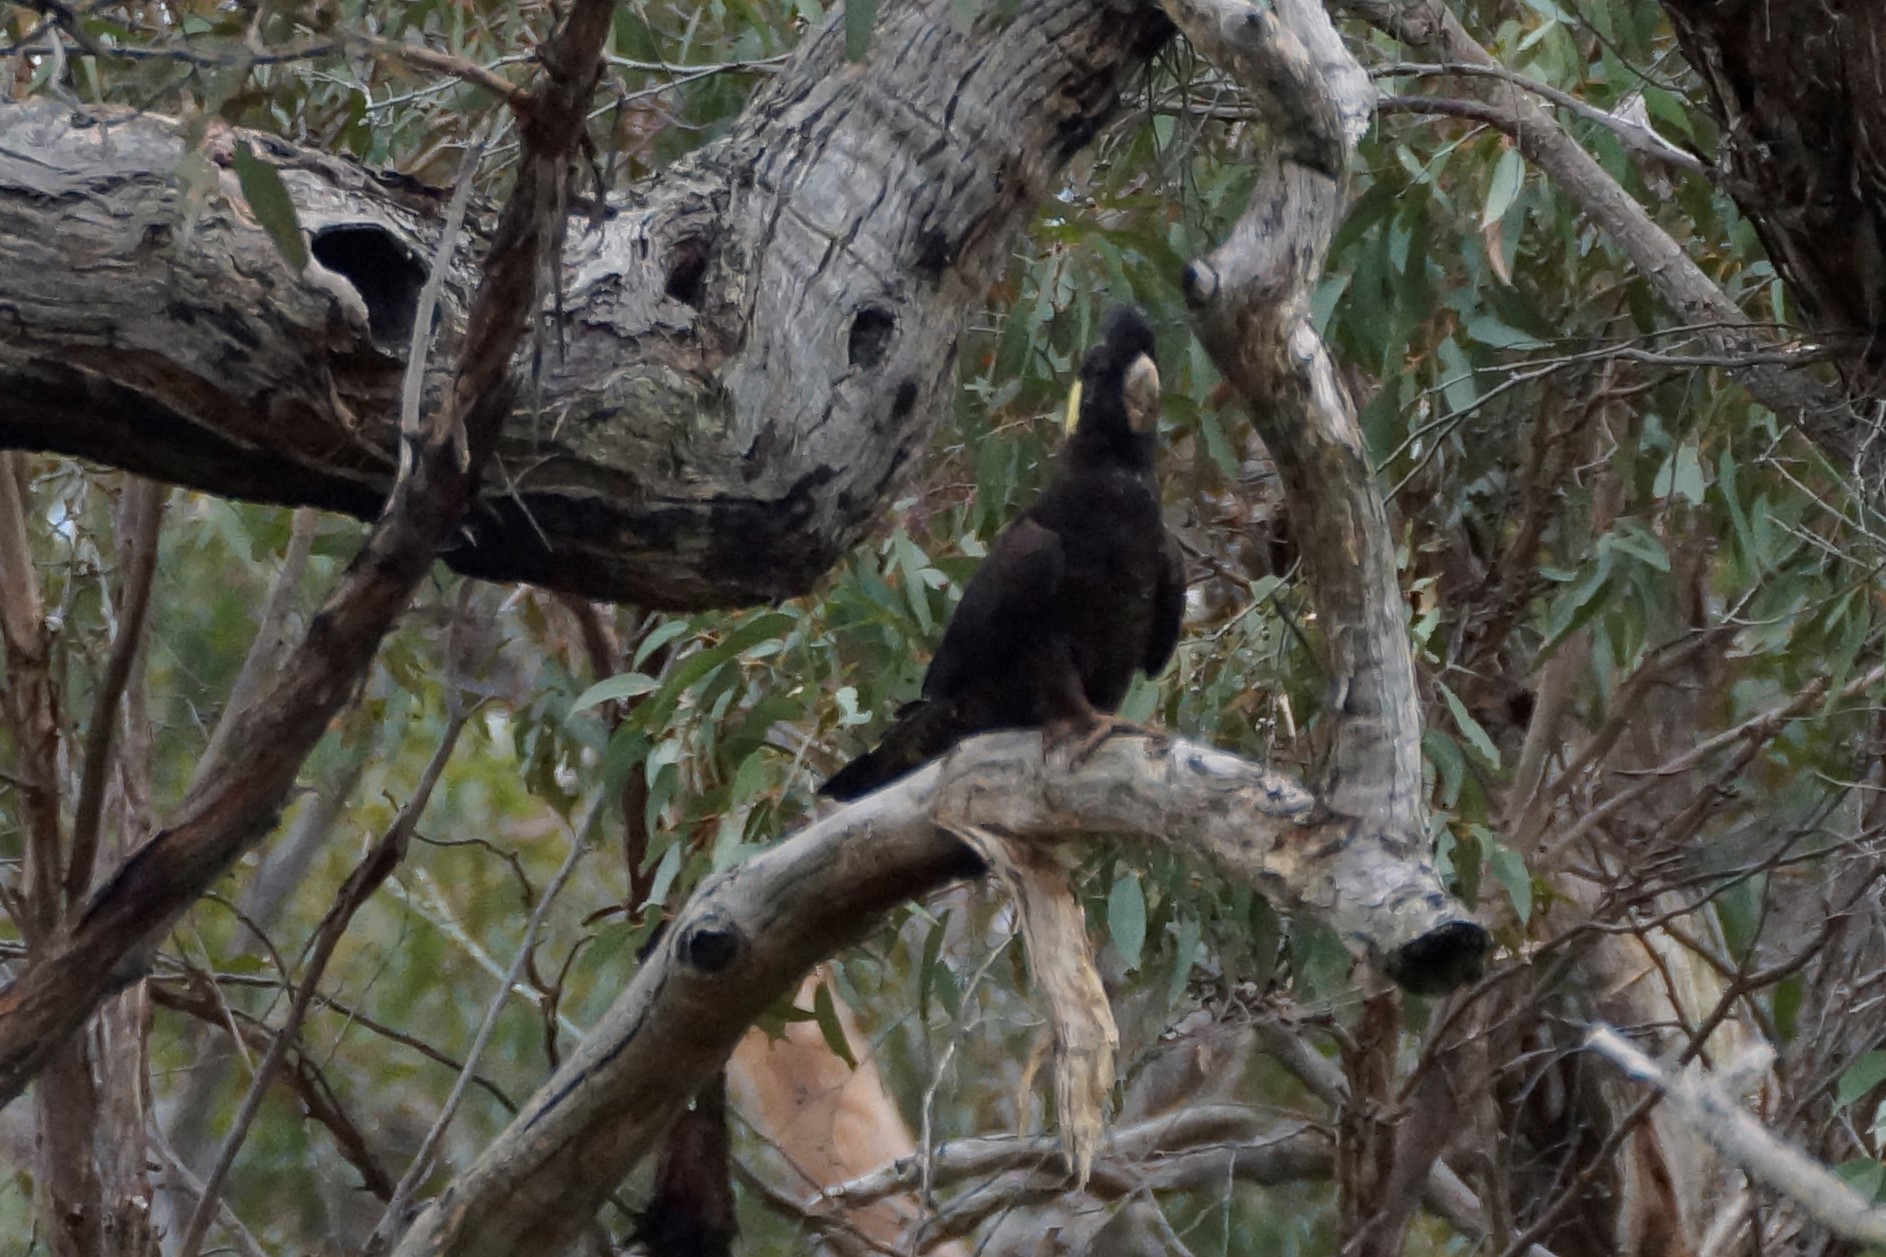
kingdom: Animalia
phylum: Chordata
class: Aves
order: Psittaciformes
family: Cacatuidae
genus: Zanda
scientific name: Zanda funerea
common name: Yellow-tailed black-cockatoo
